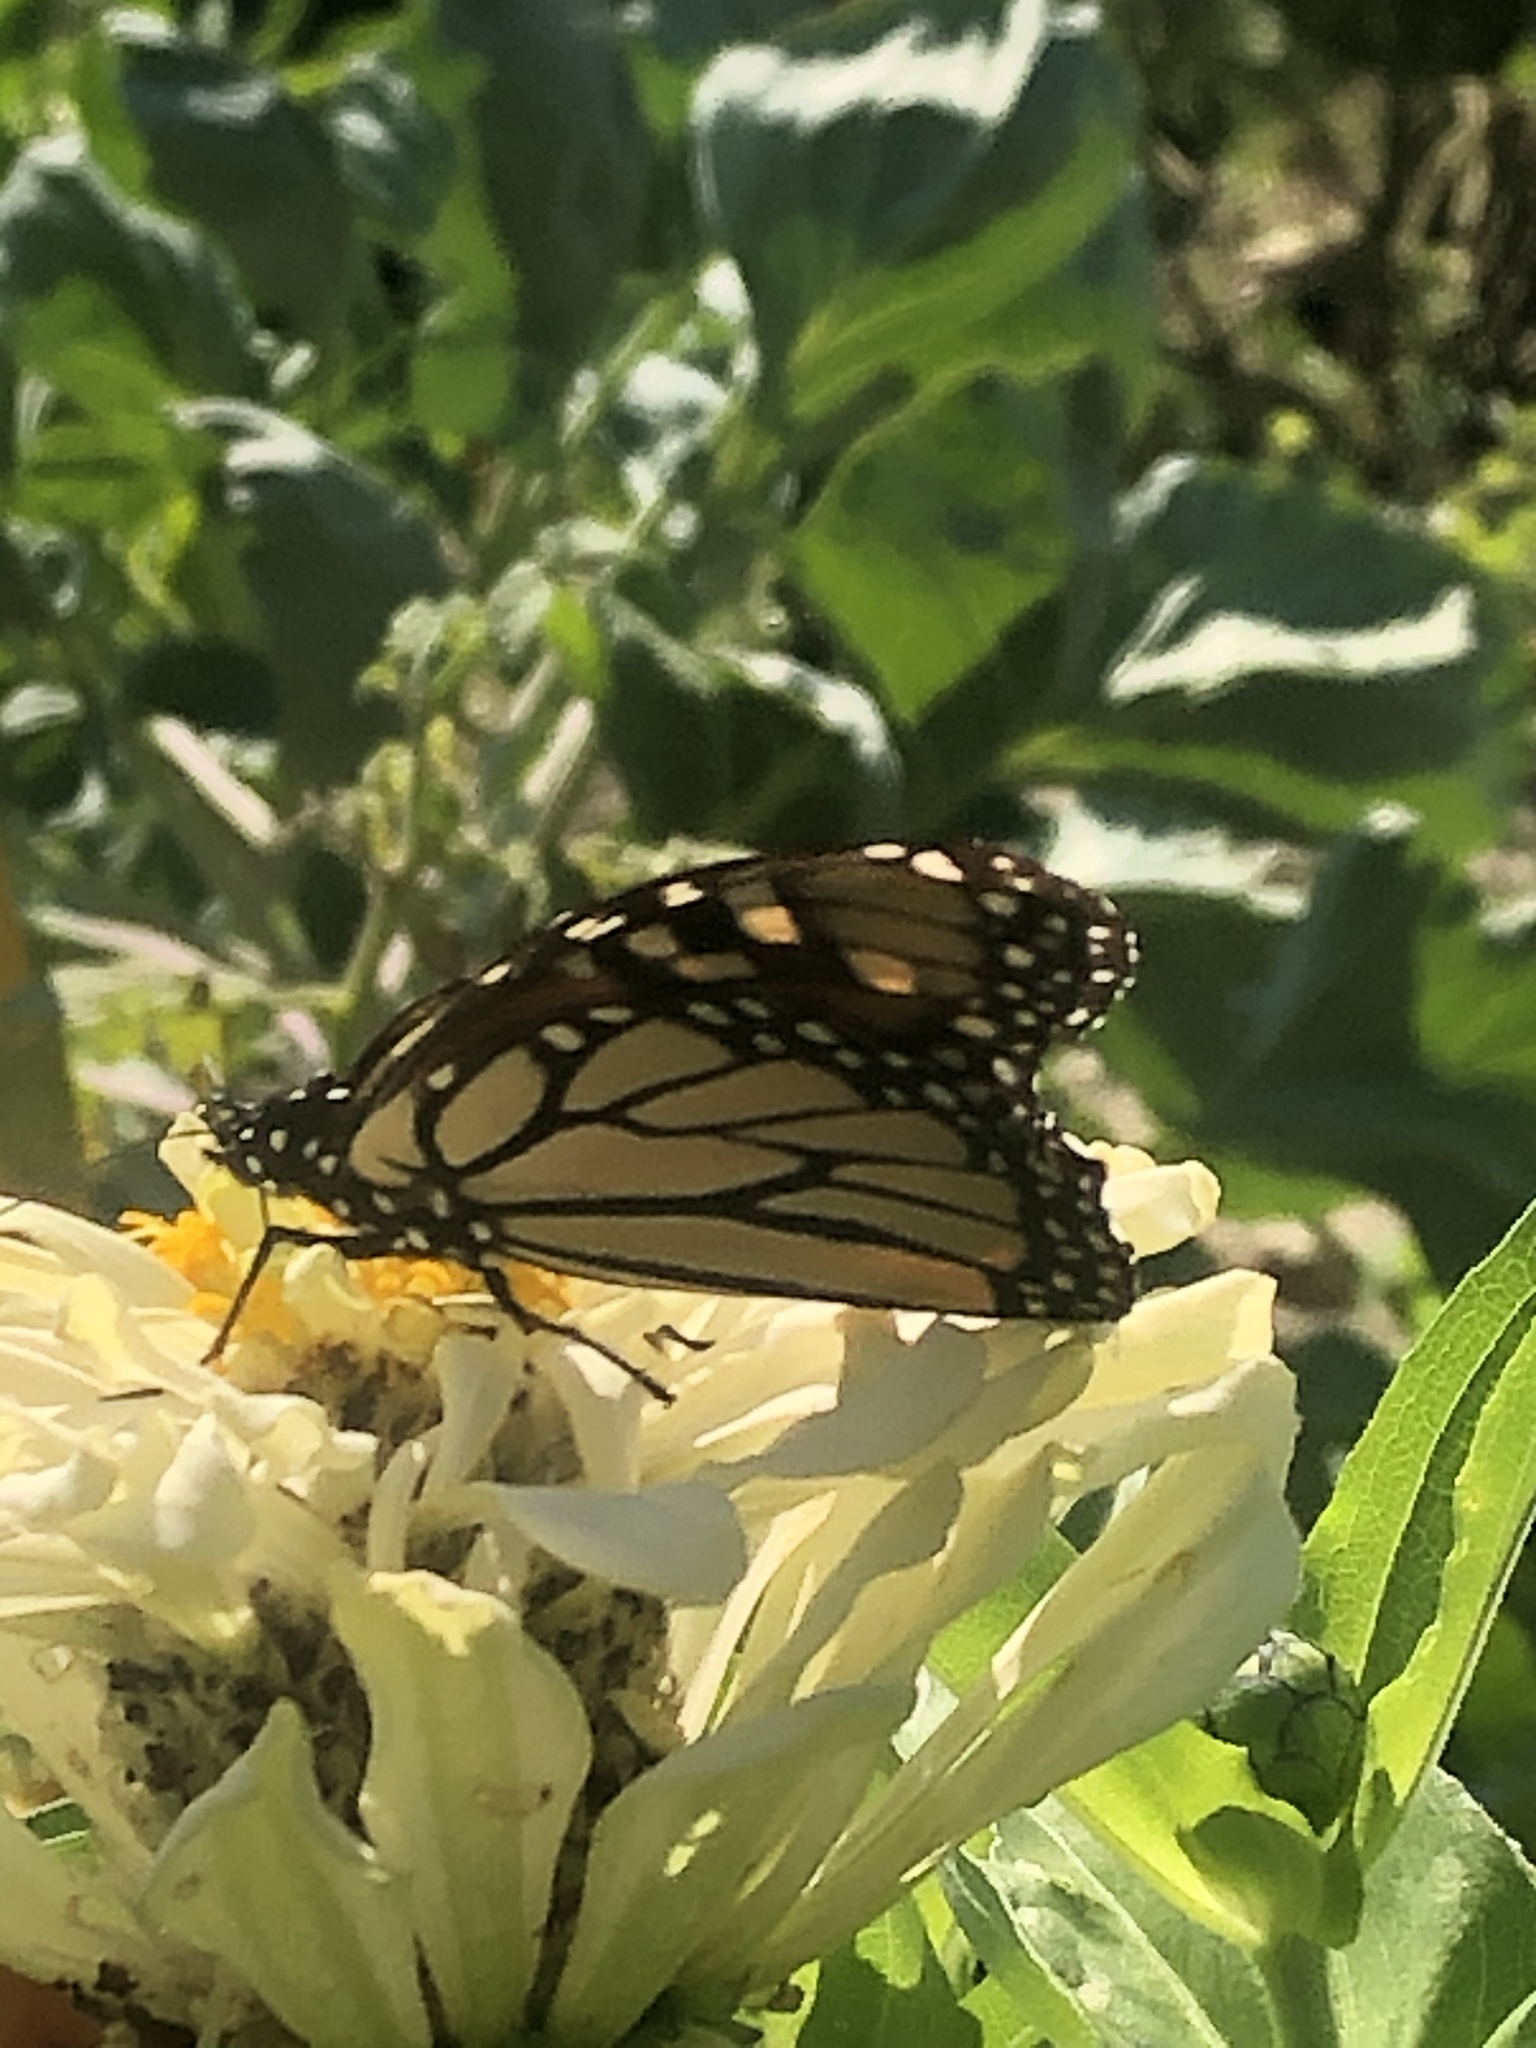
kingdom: Animalia
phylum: Arthropoda
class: Insecta
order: Lepidoptera
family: Nymphalidae
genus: Danaus
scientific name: Danaus plexippus
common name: Monarch
